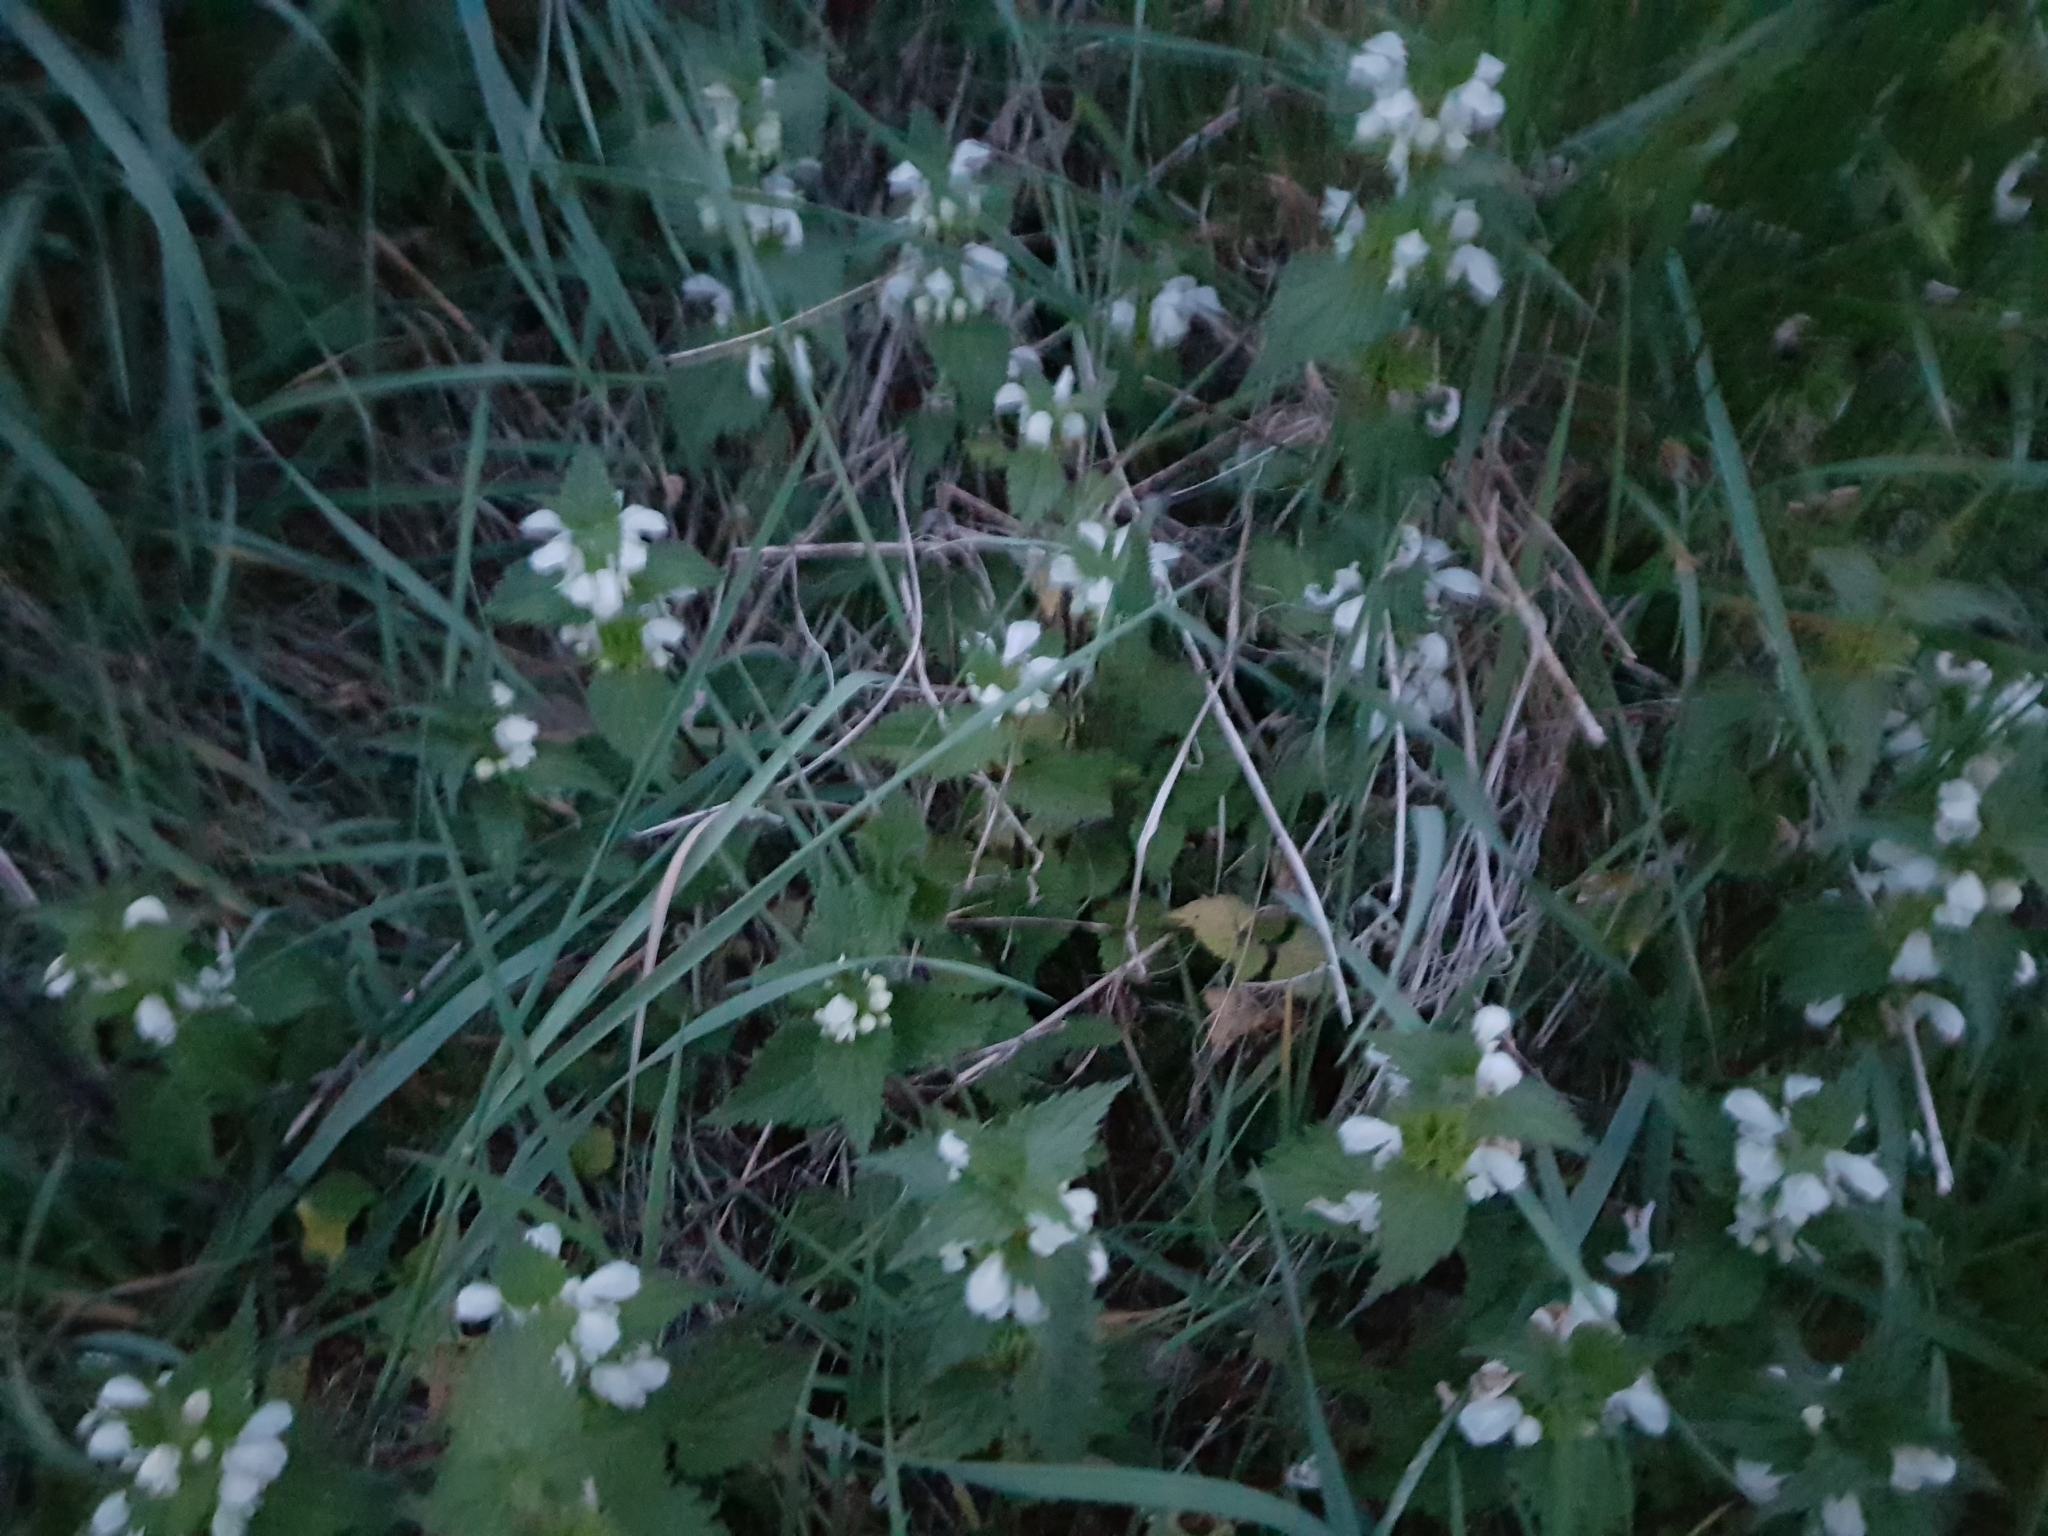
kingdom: Plantae
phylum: Tracheophyta
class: Magnoliopsida
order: Lamiales
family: Lamiaceae
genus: Lamium
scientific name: Lamium album
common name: White dead-nettle
